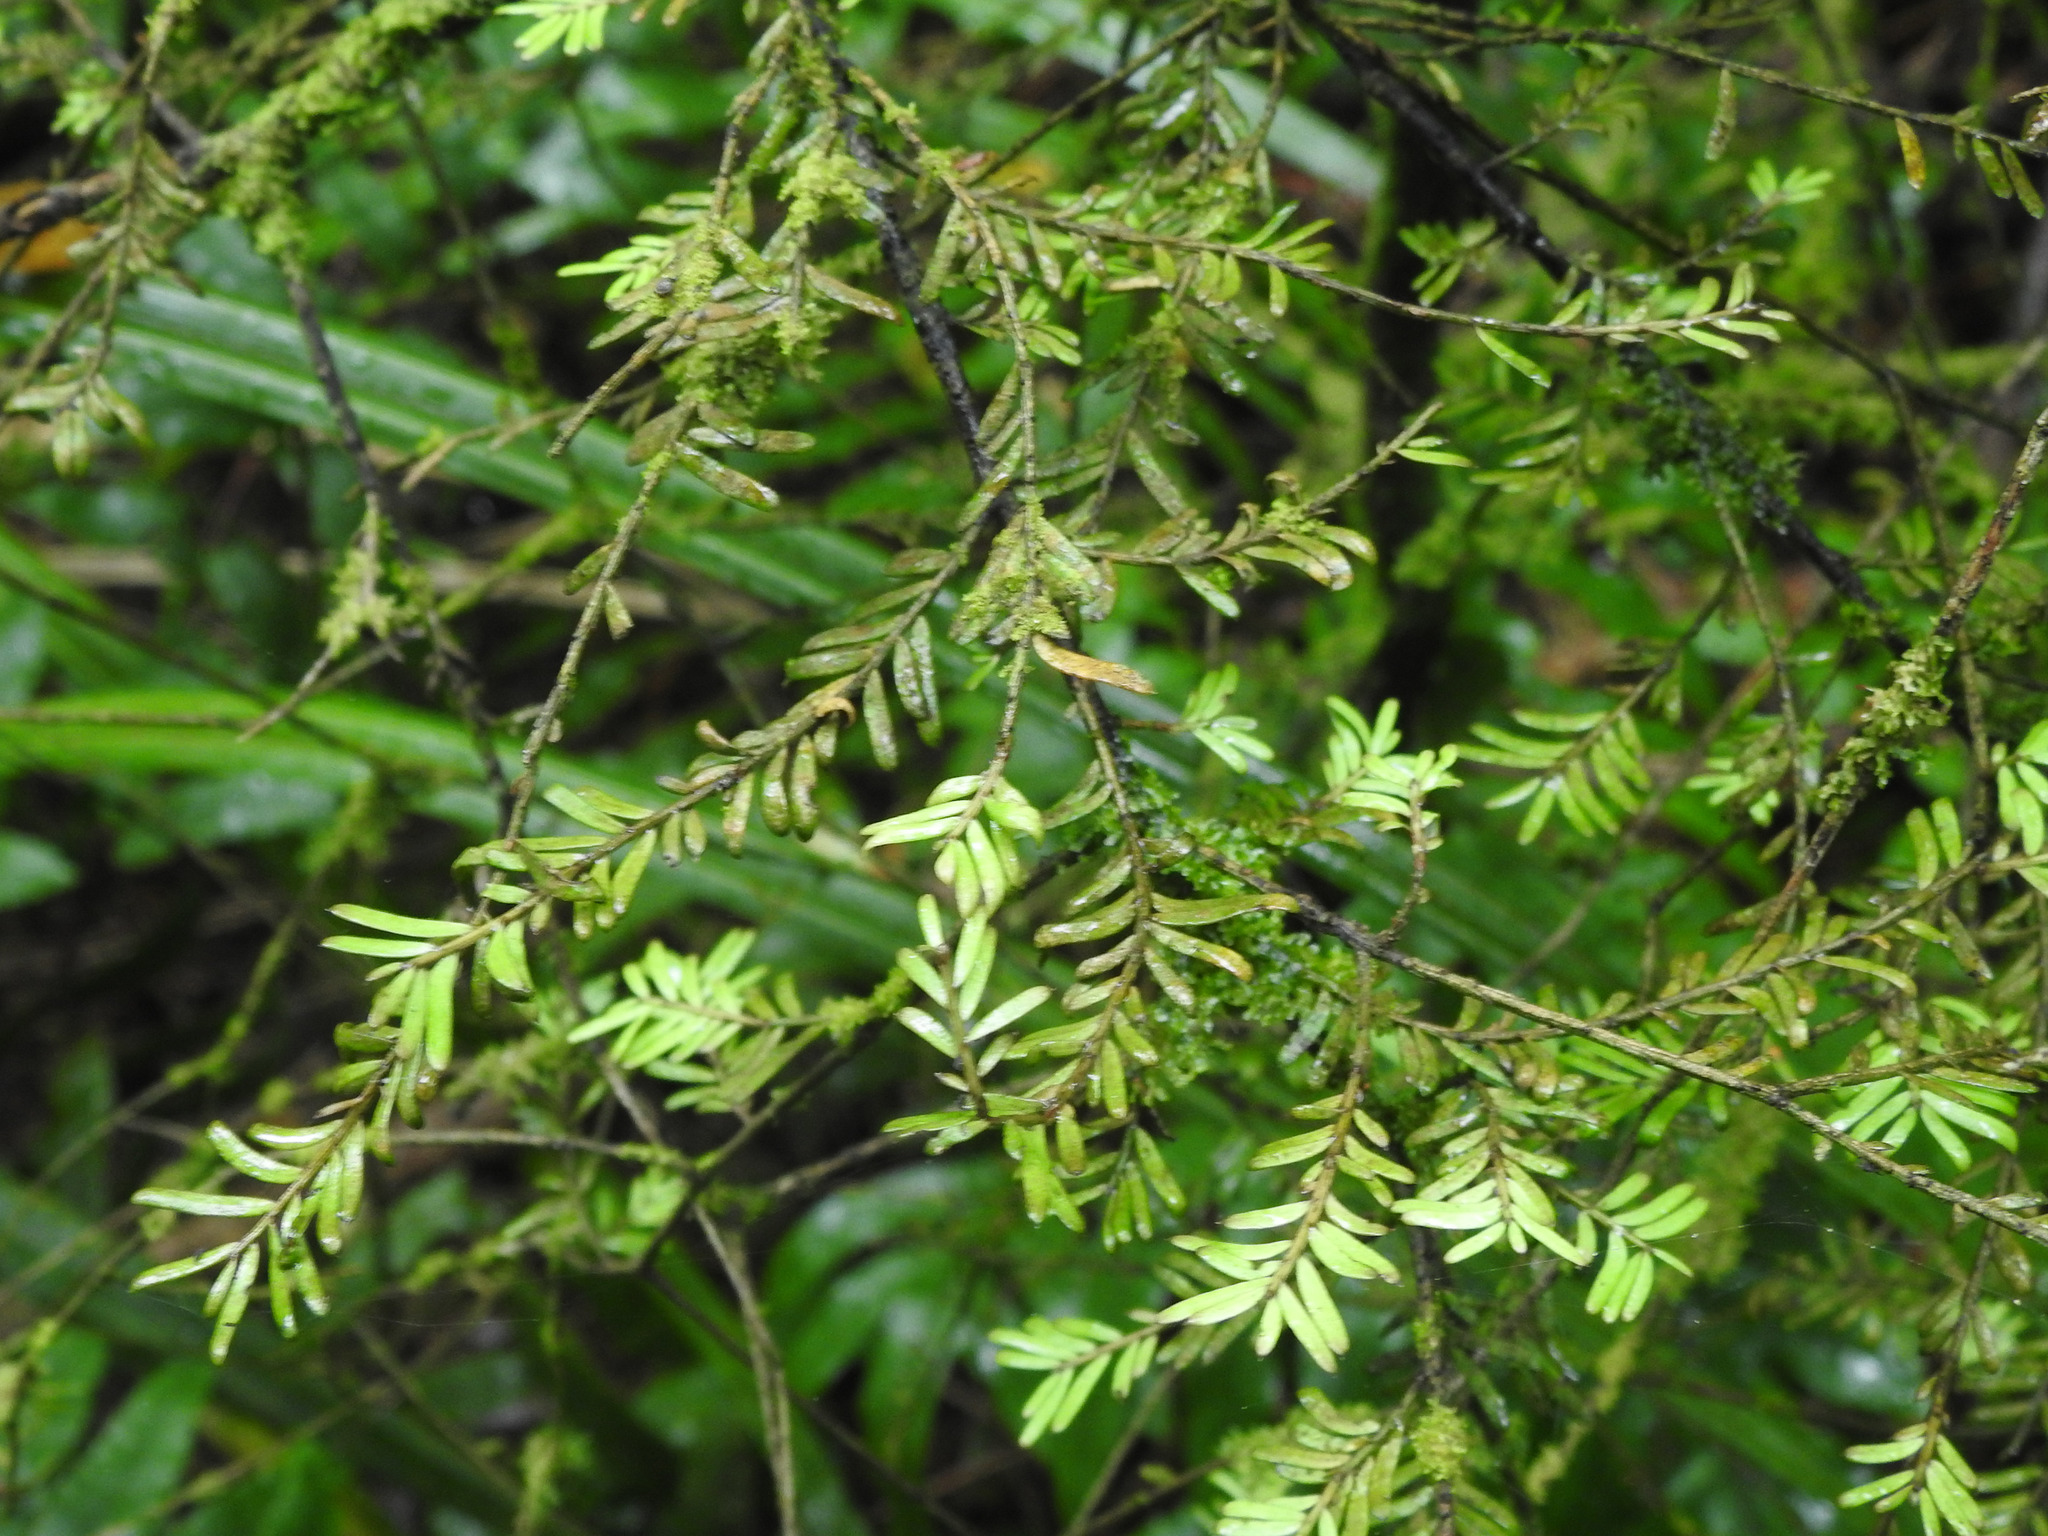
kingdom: Plantae
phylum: Tracheophyta
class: Pinopsida
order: Pinales
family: Podocarpaceae
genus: Prumnopitys
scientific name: Prumnopitys taxifolia
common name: Matai
